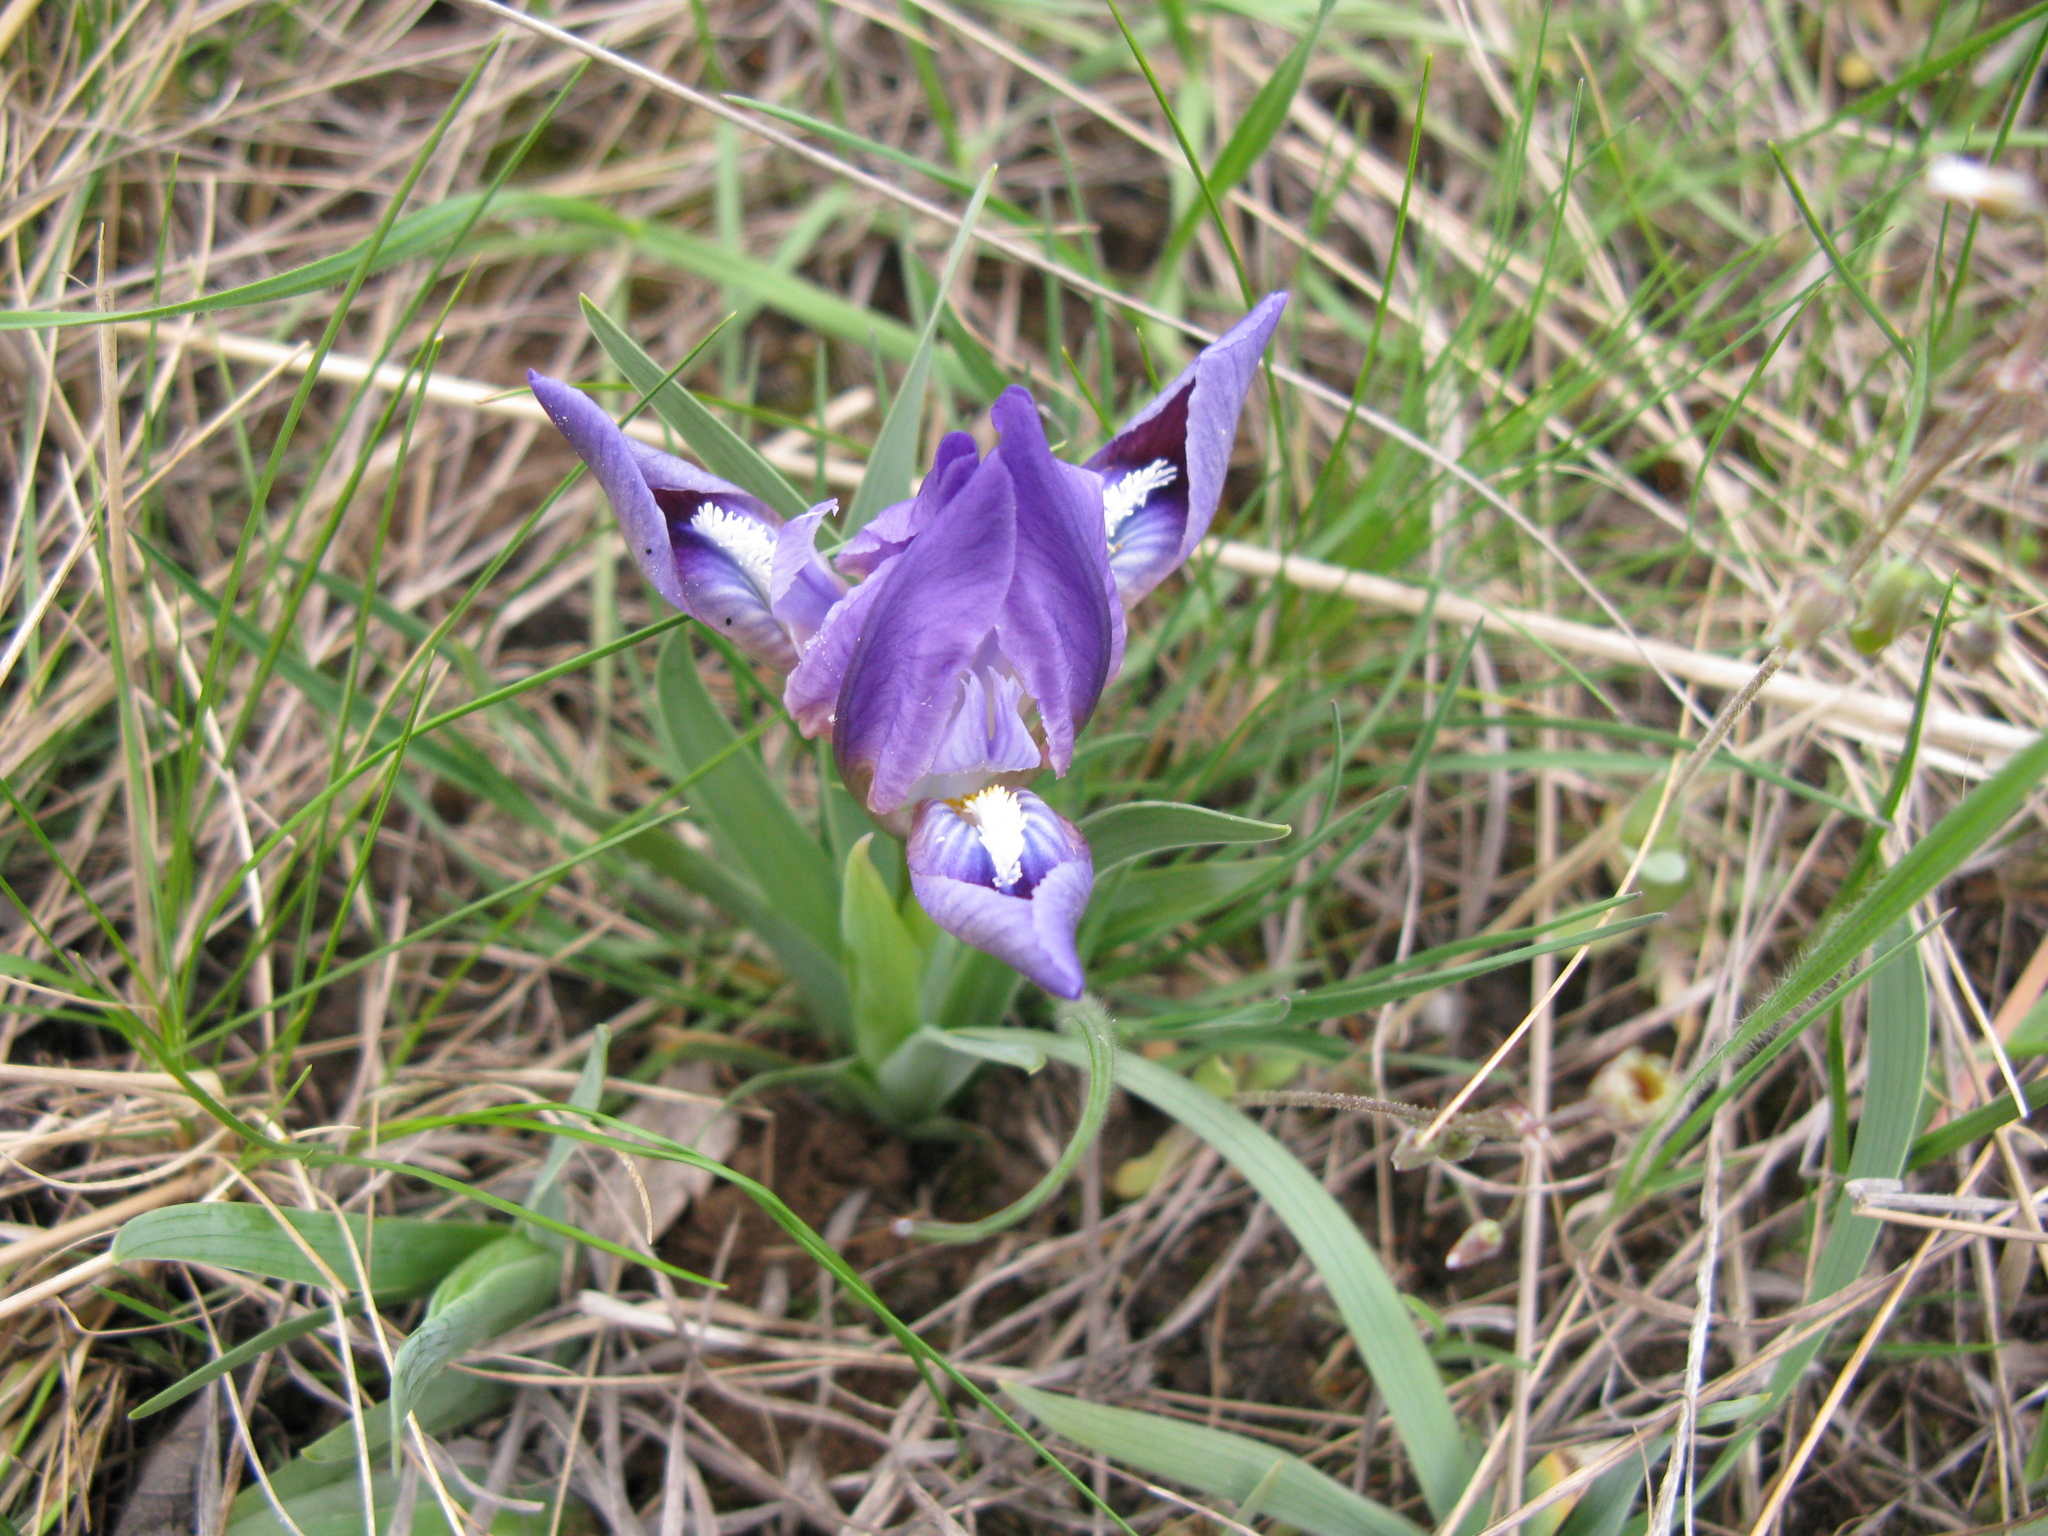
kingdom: Plantae
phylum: Tracheophyta
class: Liliopsida
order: Asparagales
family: Iridaceae
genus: Iris
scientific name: Iris pumila
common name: Dwarf iris
